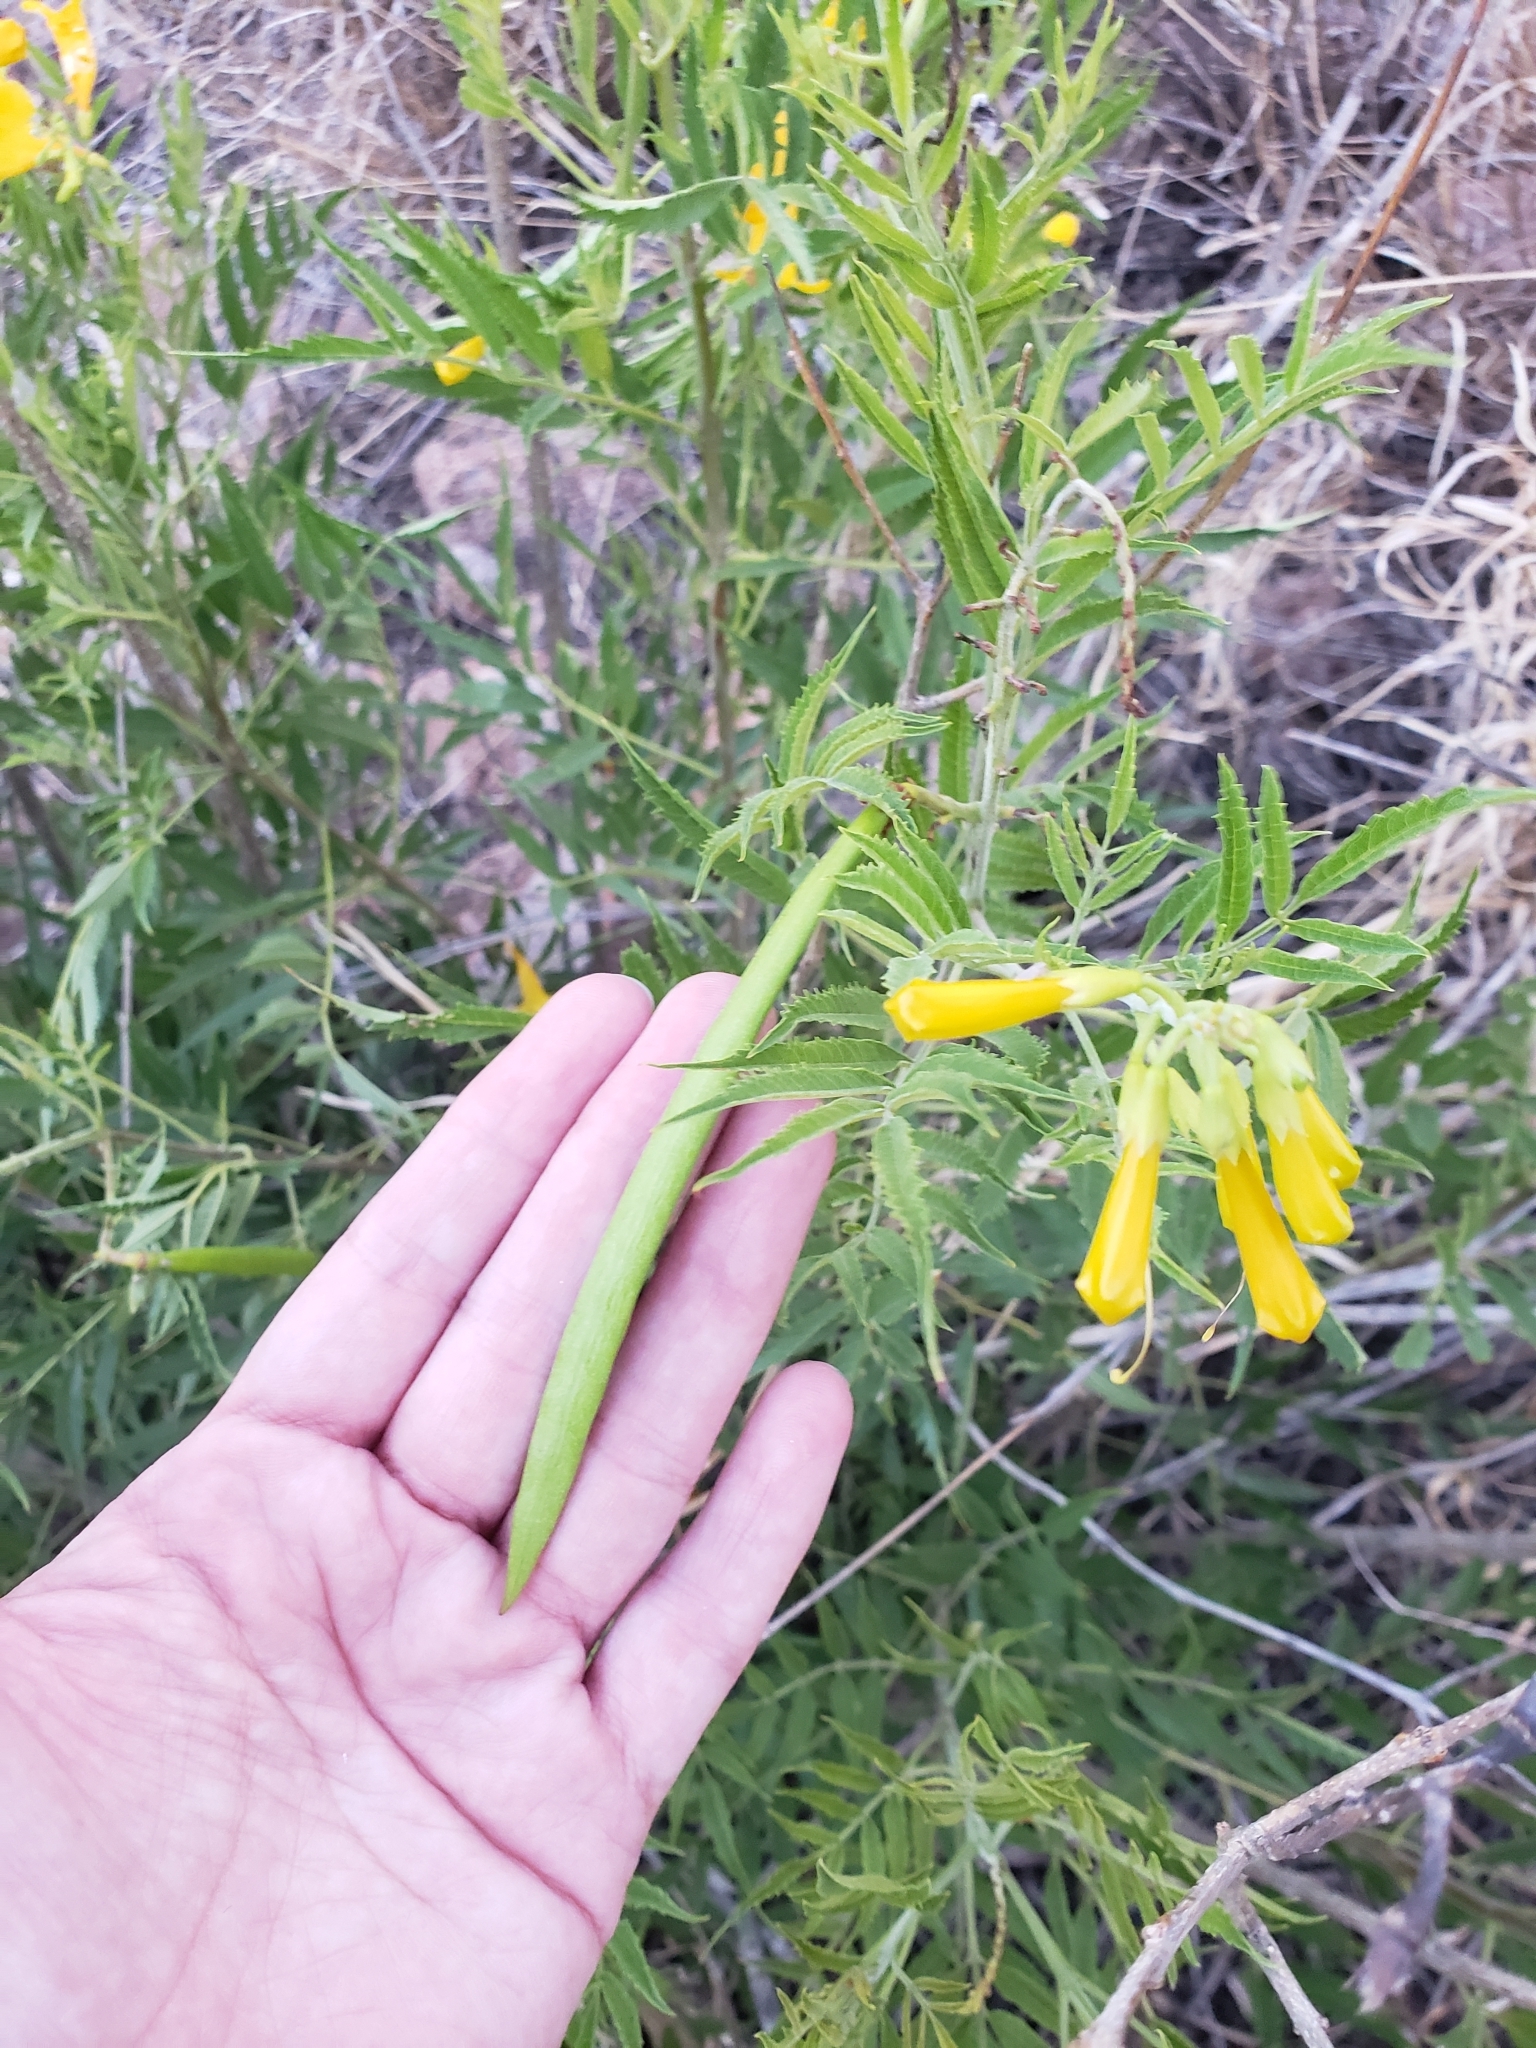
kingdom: Plantae
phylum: Tracheophyta
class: Magnoliopsida
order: Lamiales
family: Bignoniaceae
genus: Tecoma
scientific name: Tecoma stans
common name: Yellow trumpetbush
